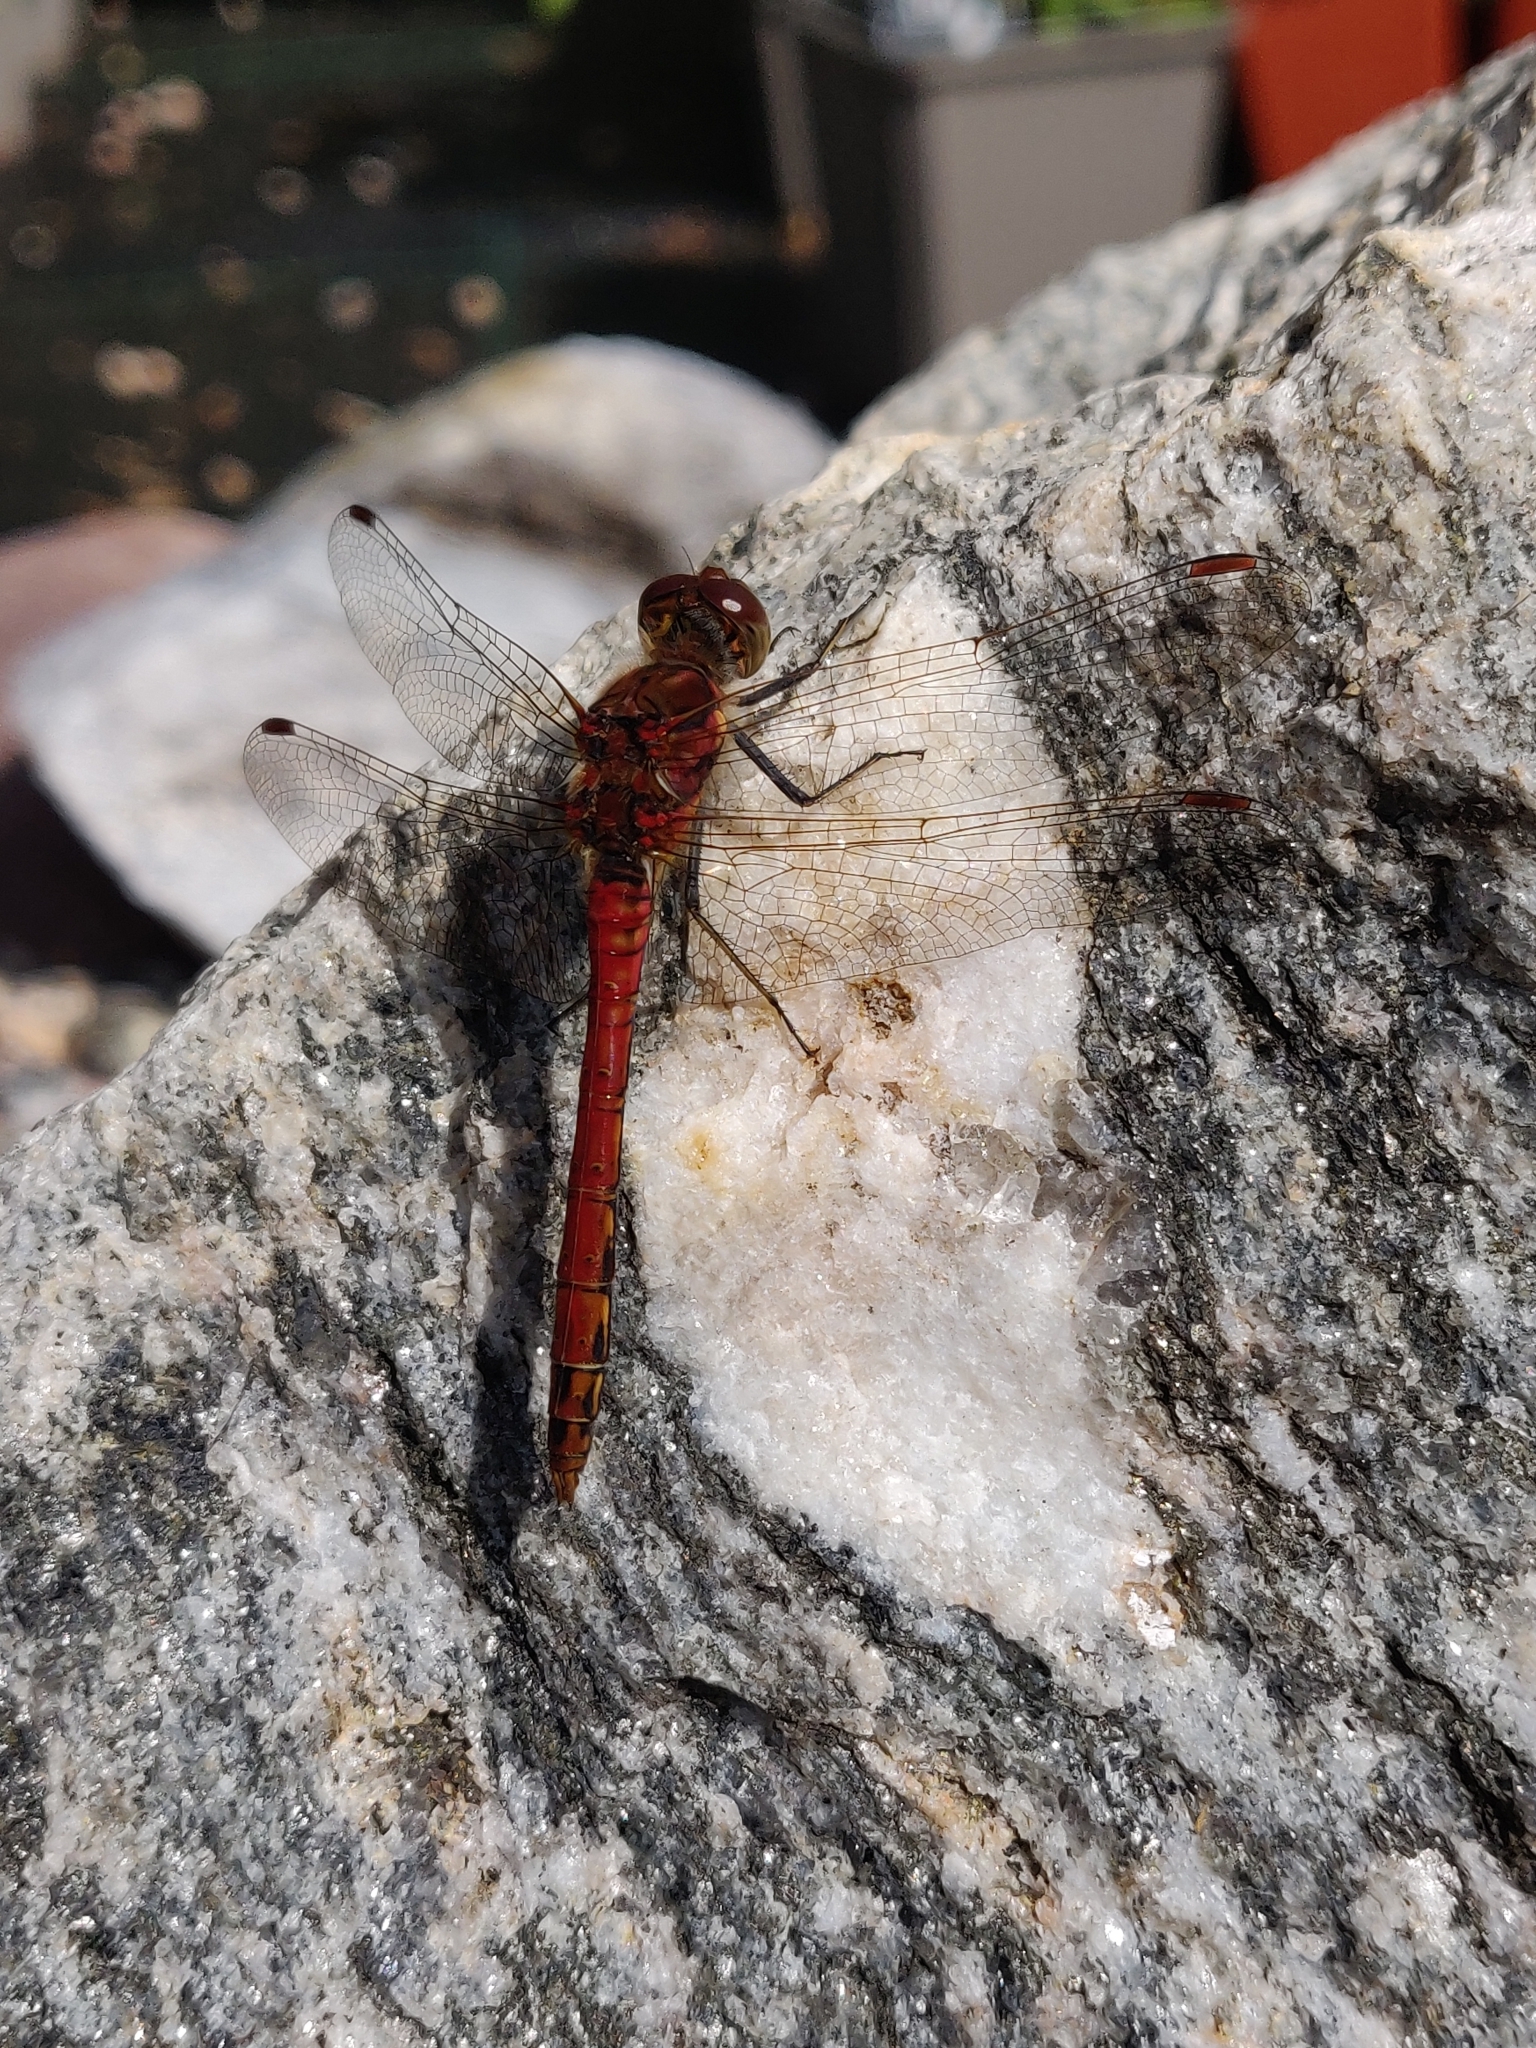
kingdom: Animalia
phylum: Arthropoda
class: Insecta
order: Odonata
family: Libellulidae
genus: Sympetrum
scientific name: Sympetrum striolatum
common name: Common darter
